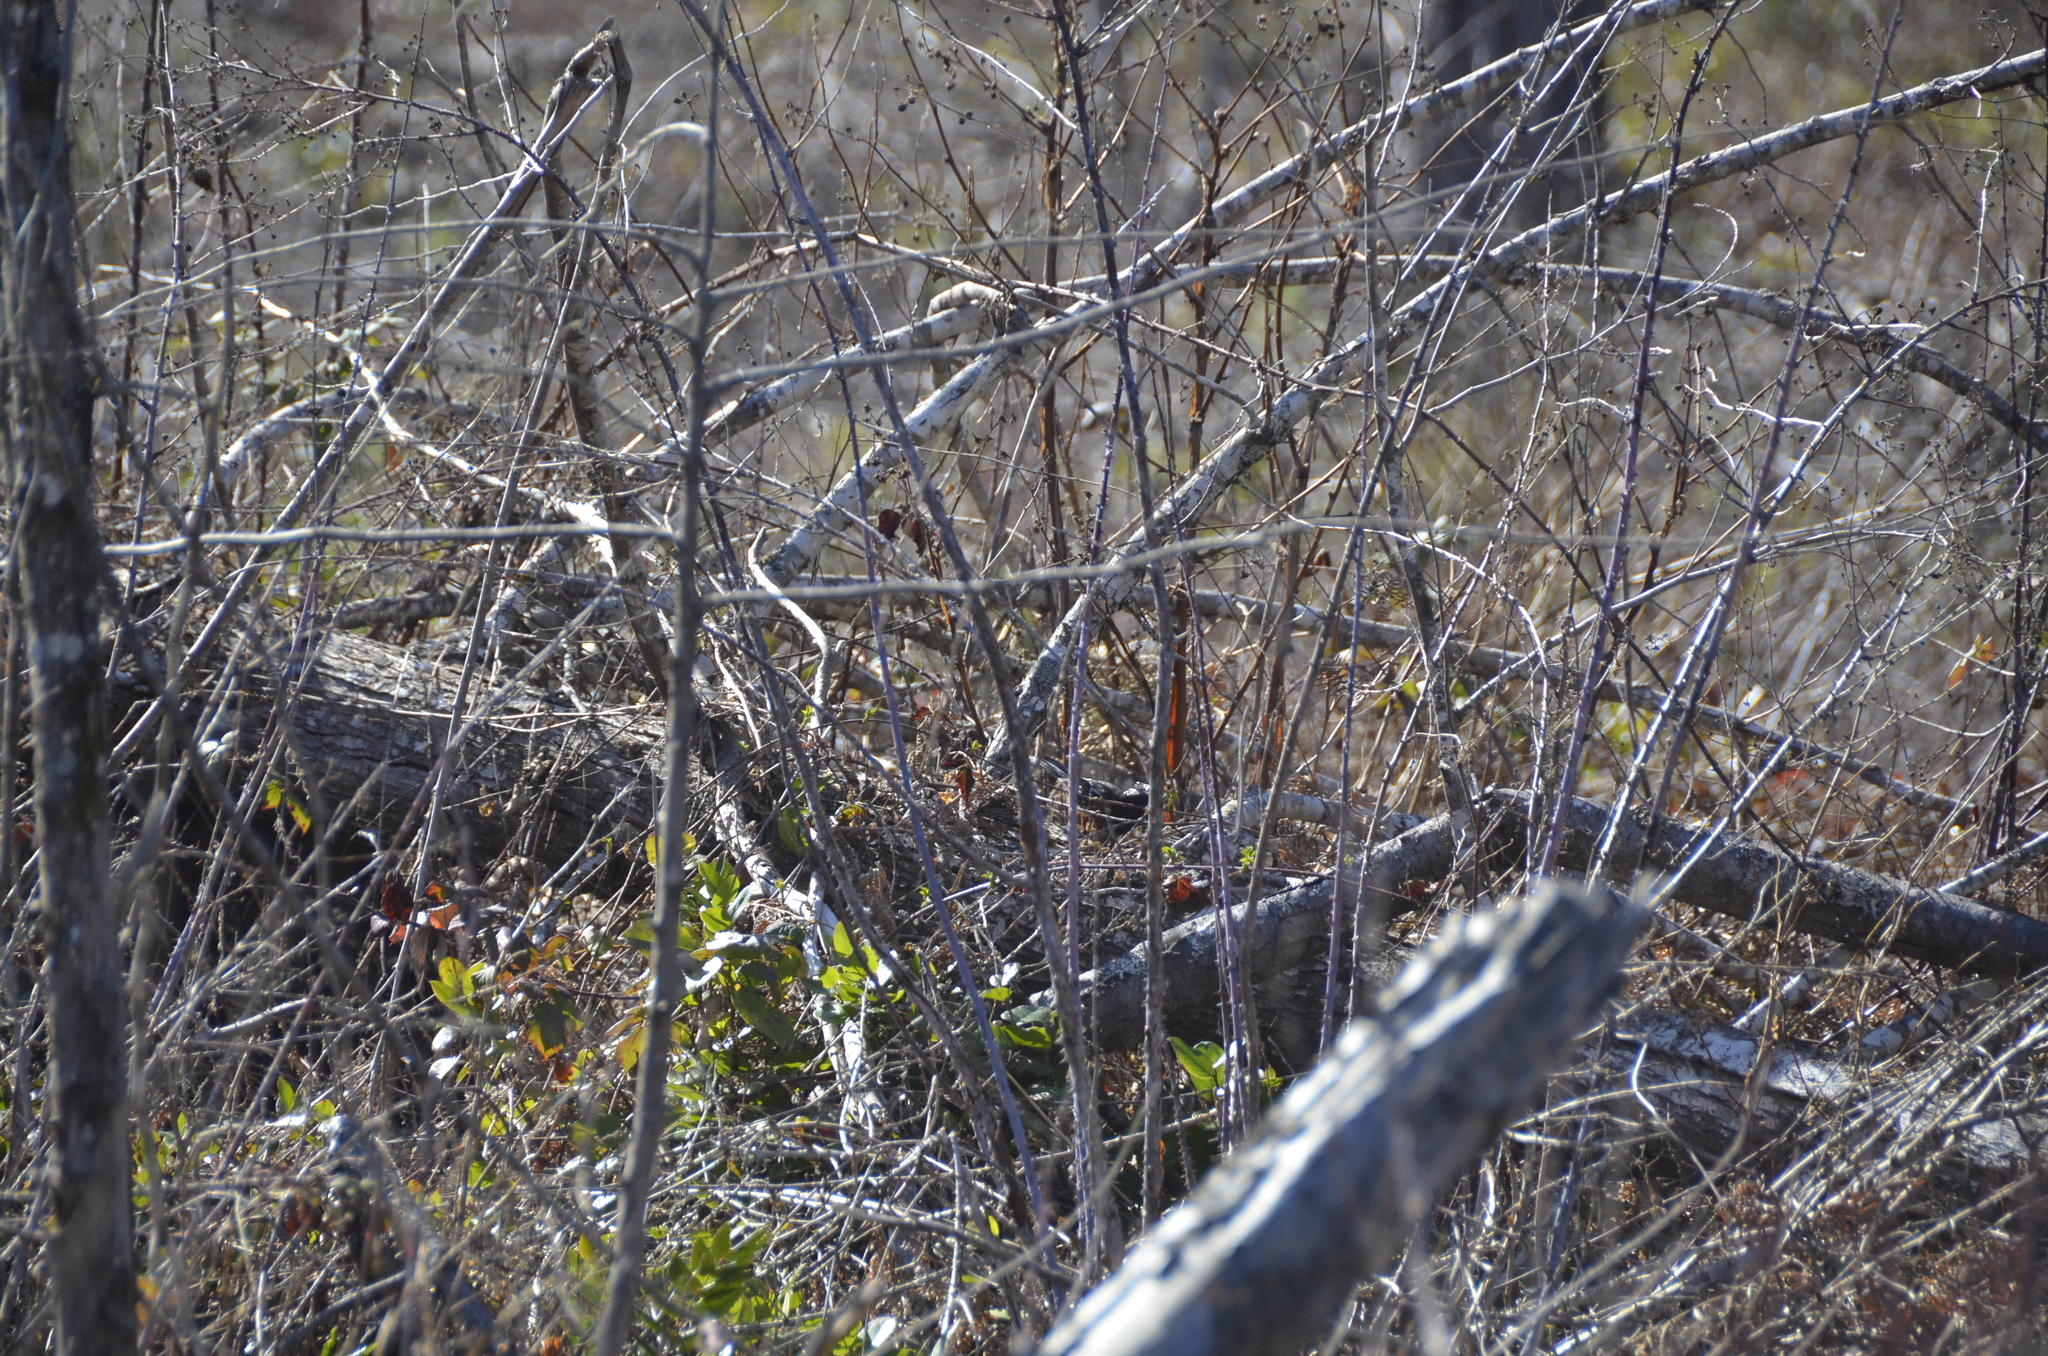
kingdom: Animalia
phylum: Chordata
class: Aves
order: Passeriformes
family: Passerellidae
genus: Pipilo
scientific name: Pipilo maculatus
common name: Spotted towhee
